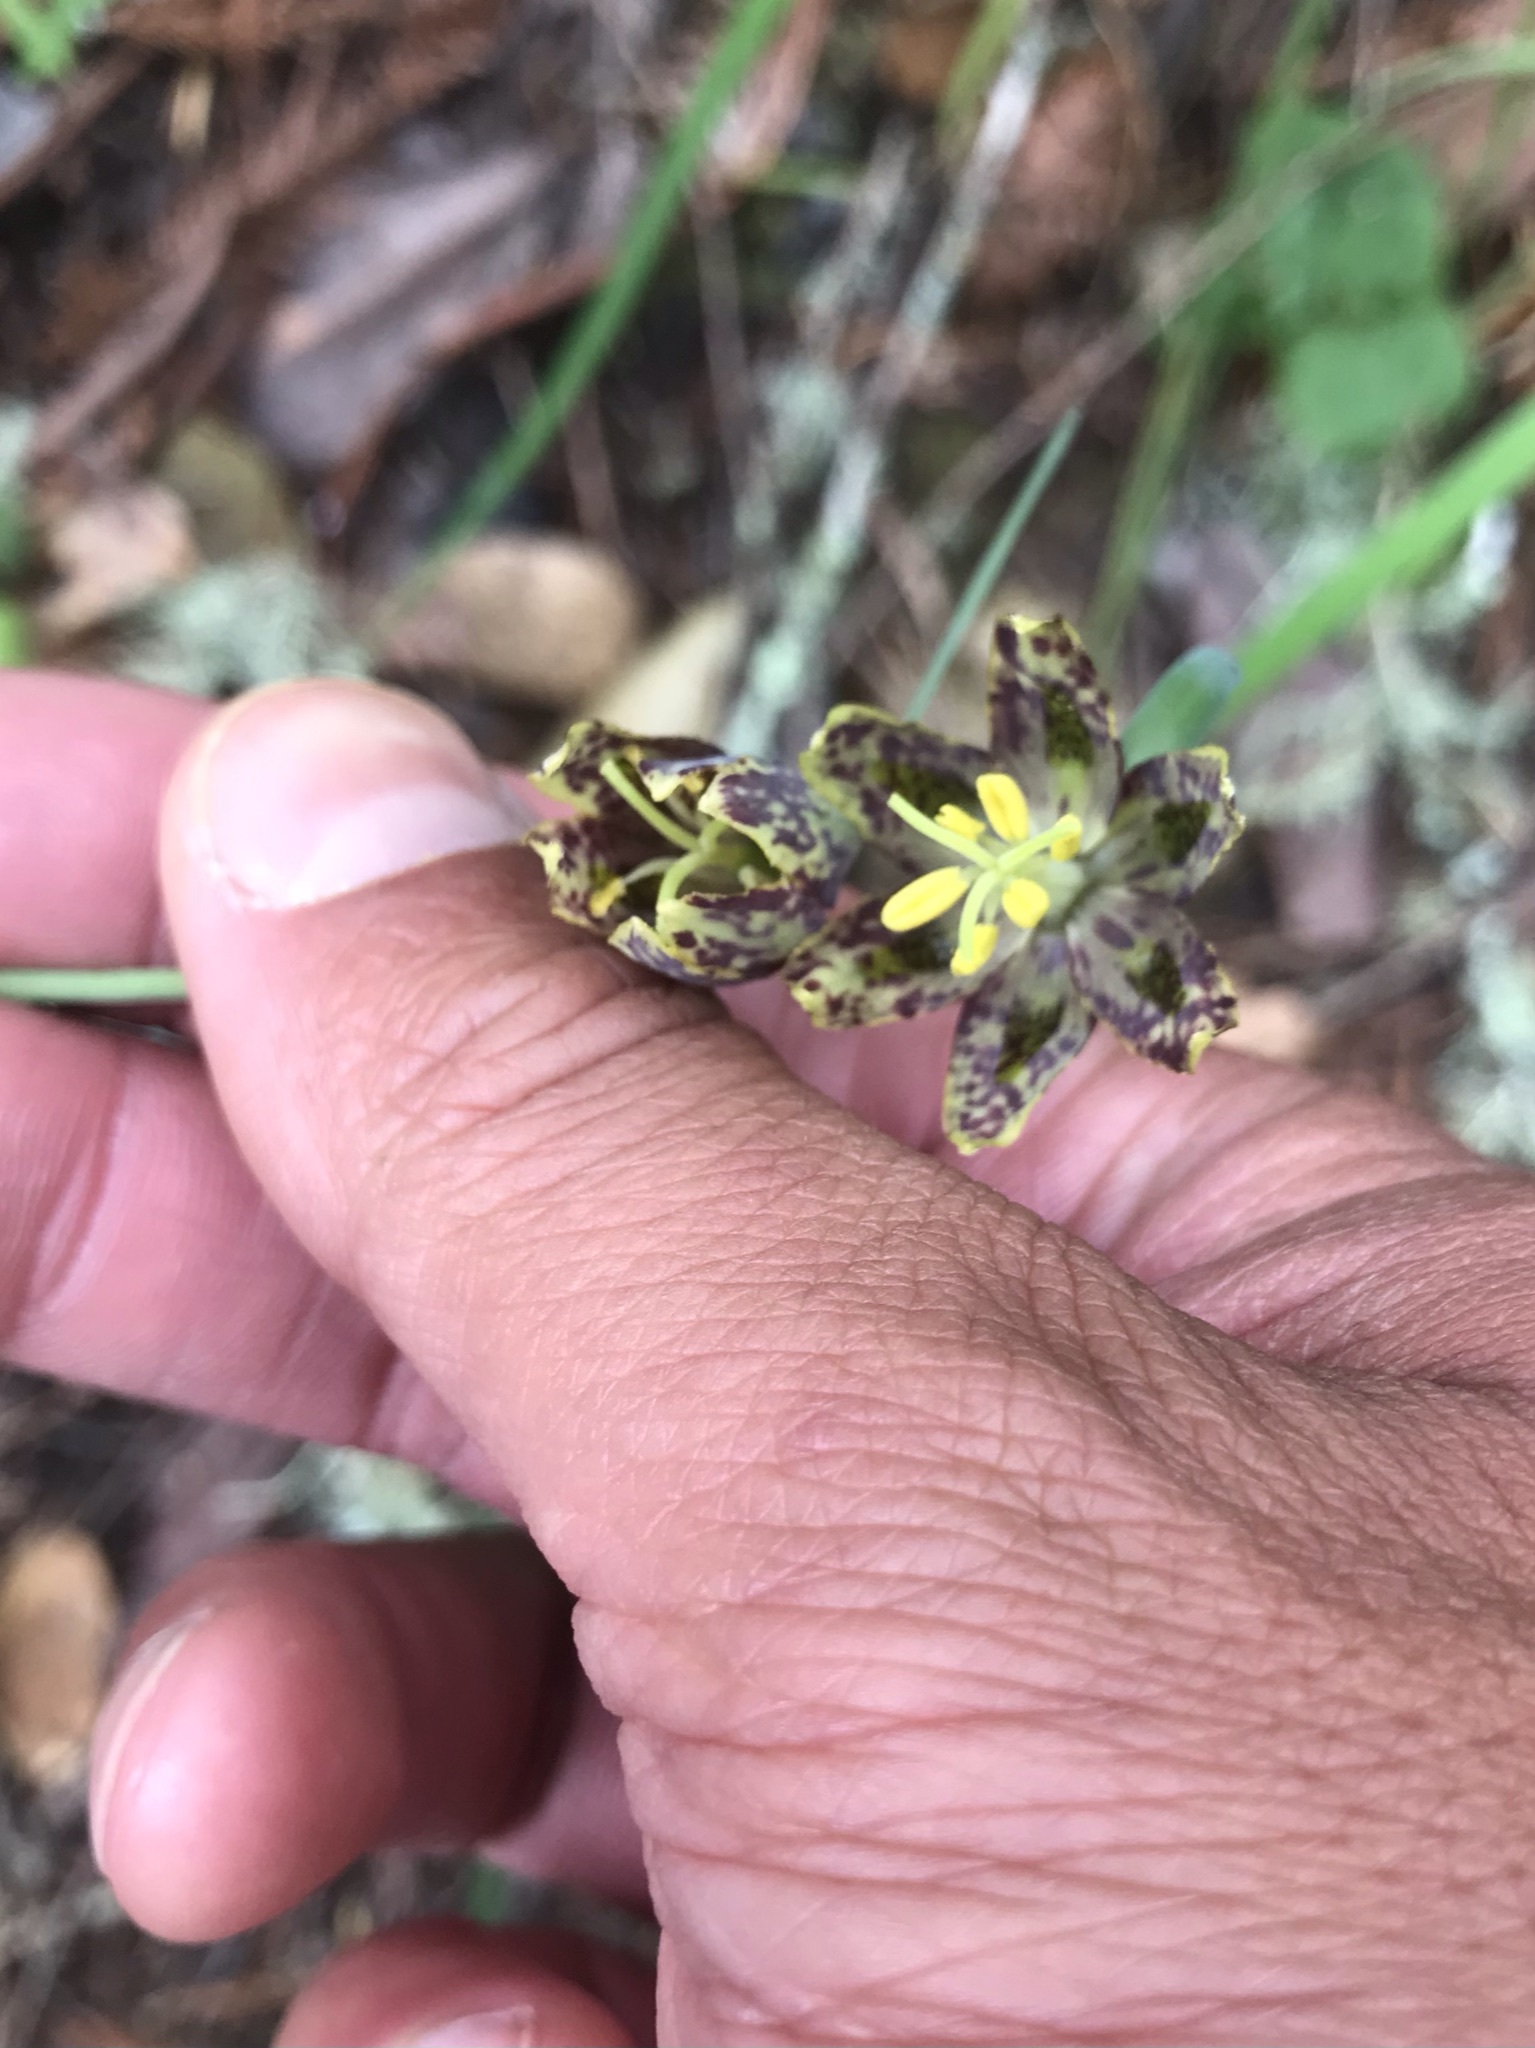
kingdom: Plantae
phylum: Tracheophyta
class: Liliopsida
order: Liliales
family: Liliaceae
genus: Fritillaria
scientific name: Fritillaria affinis
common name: Ojai fritillary
